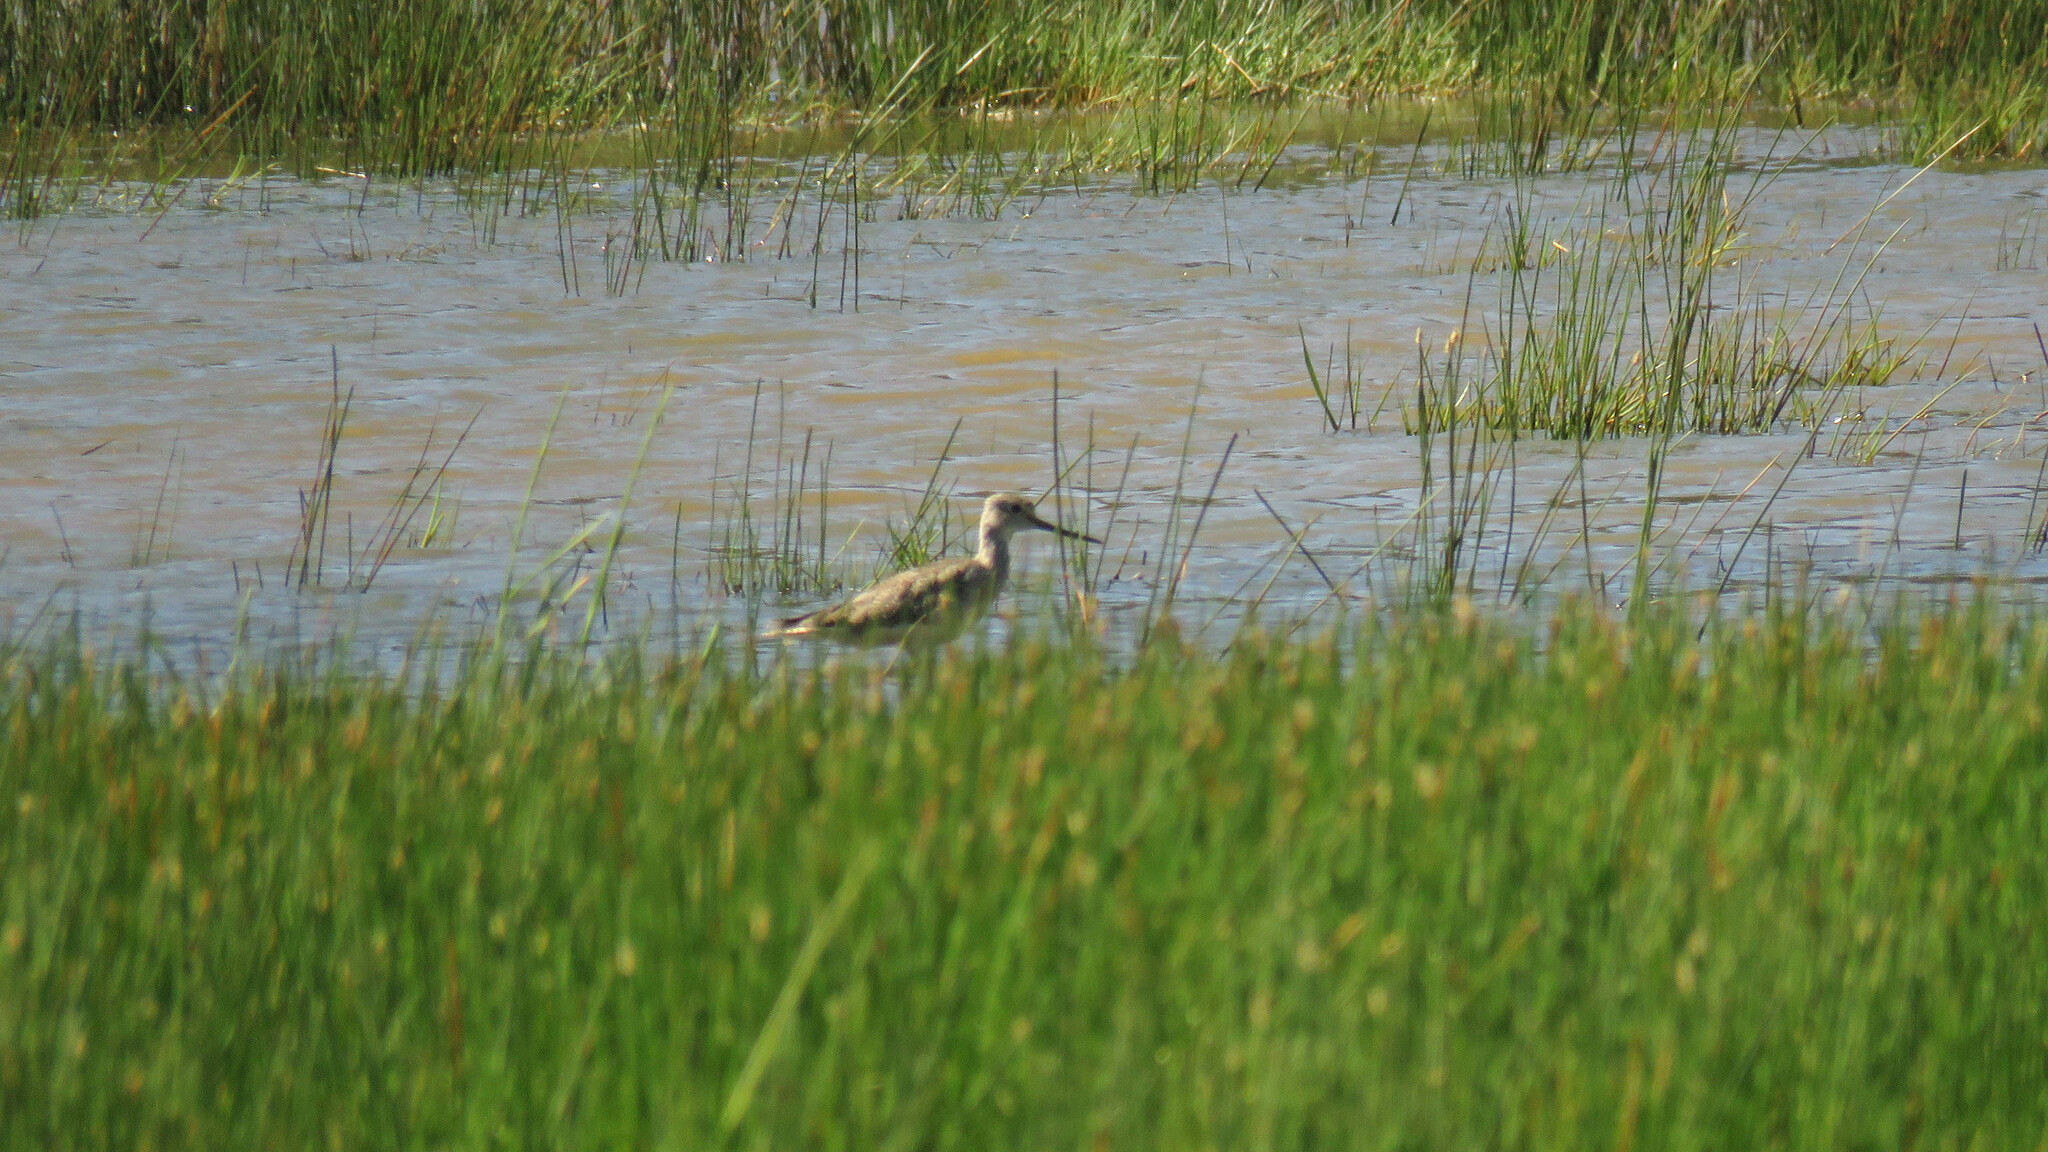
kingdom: Animalia
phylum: Chordata
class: Aves
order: Charadriiformes
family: Scolopacidae
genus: Tringa
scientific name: Tringa melanoleuca
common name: Greater yellowlegs
